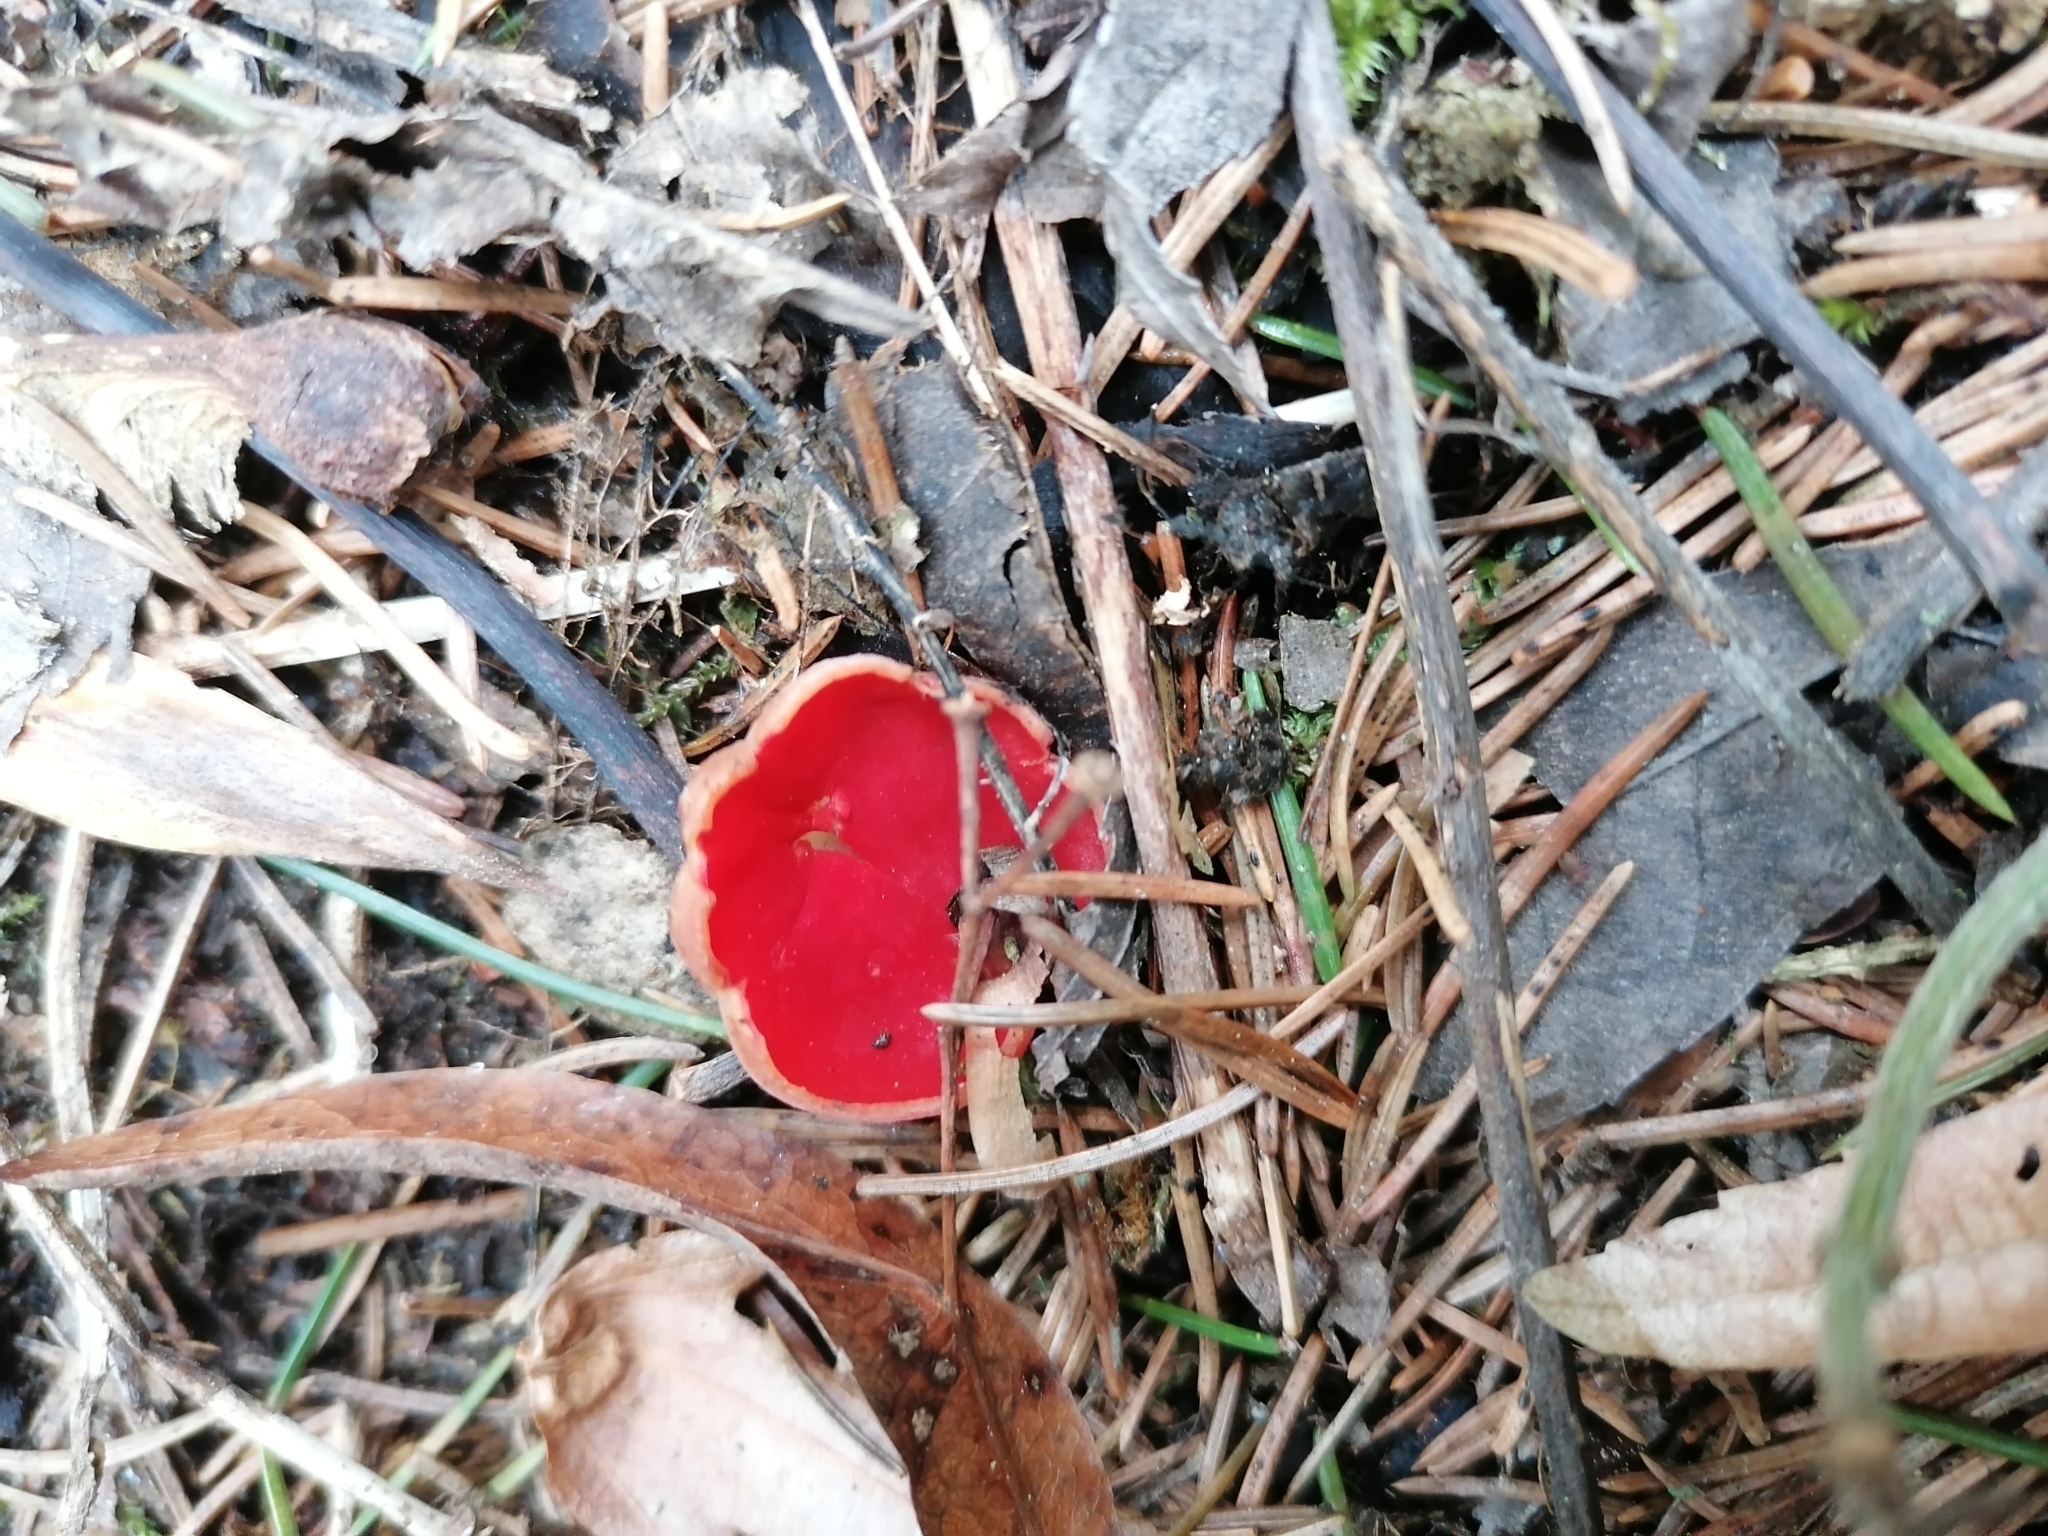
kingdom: Fungi
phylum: Ascomycota
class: Pezizomycetes
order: Pezizales
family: Sarcoscyphaceae
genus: Sarcoscypha
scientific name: Sarcoscypha
